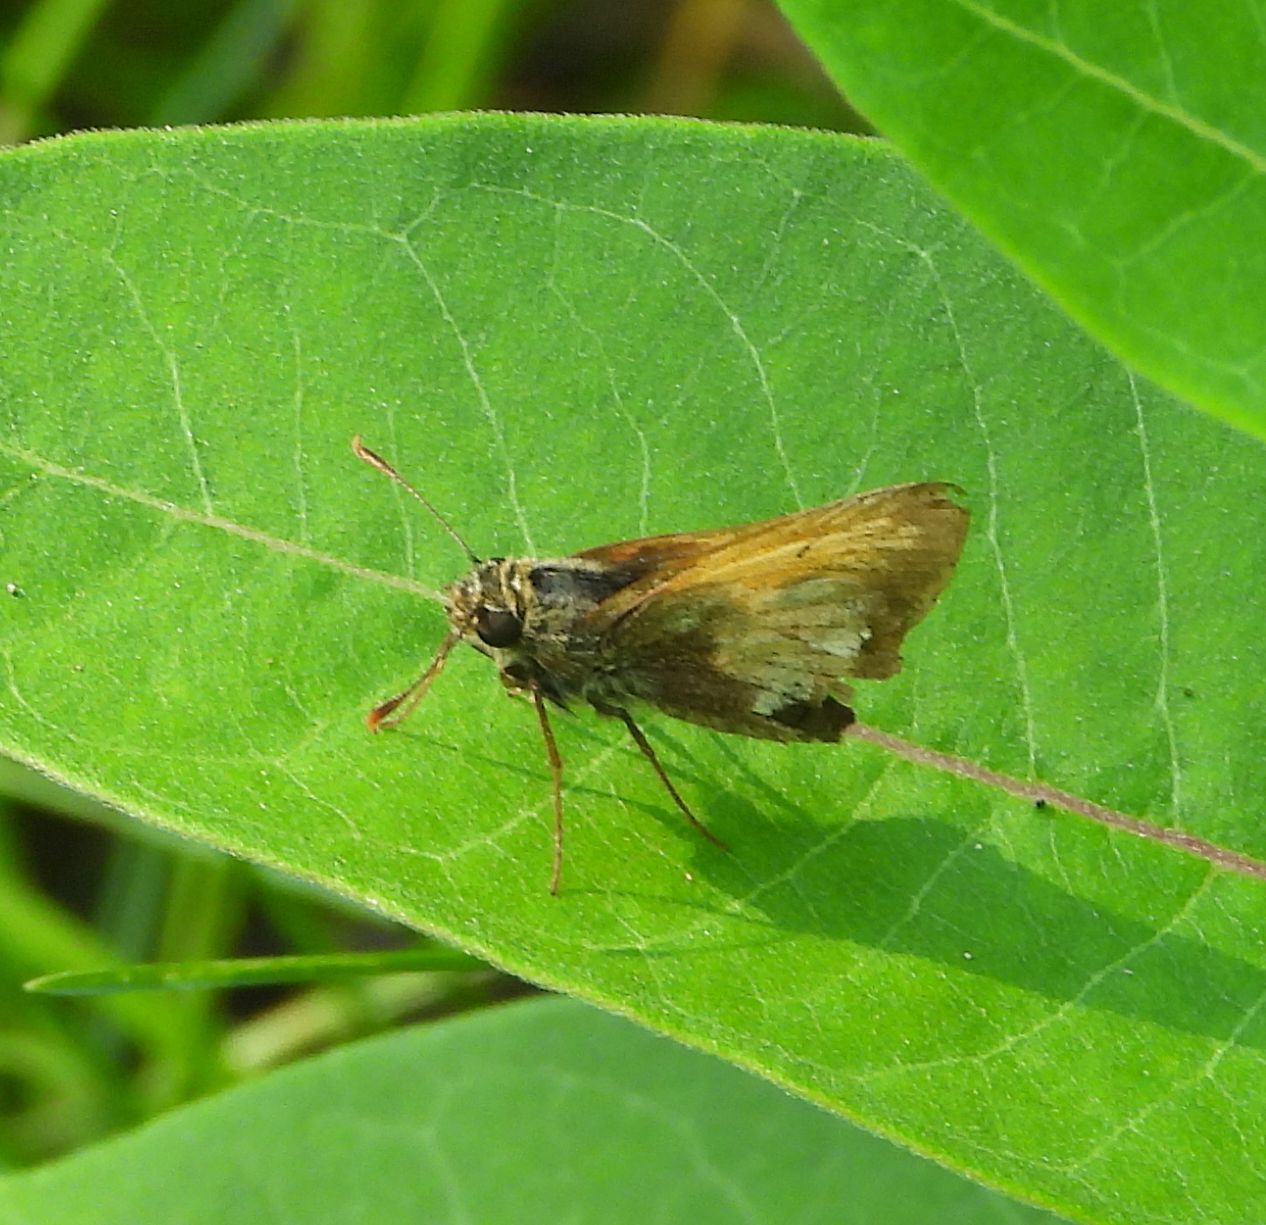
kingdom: Animalia
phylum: Arthropoda
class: Insecta
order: Lepidoptera
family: Hesperiidae
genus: Lon
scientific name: Lon hobomok
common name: Hobomok skipper
